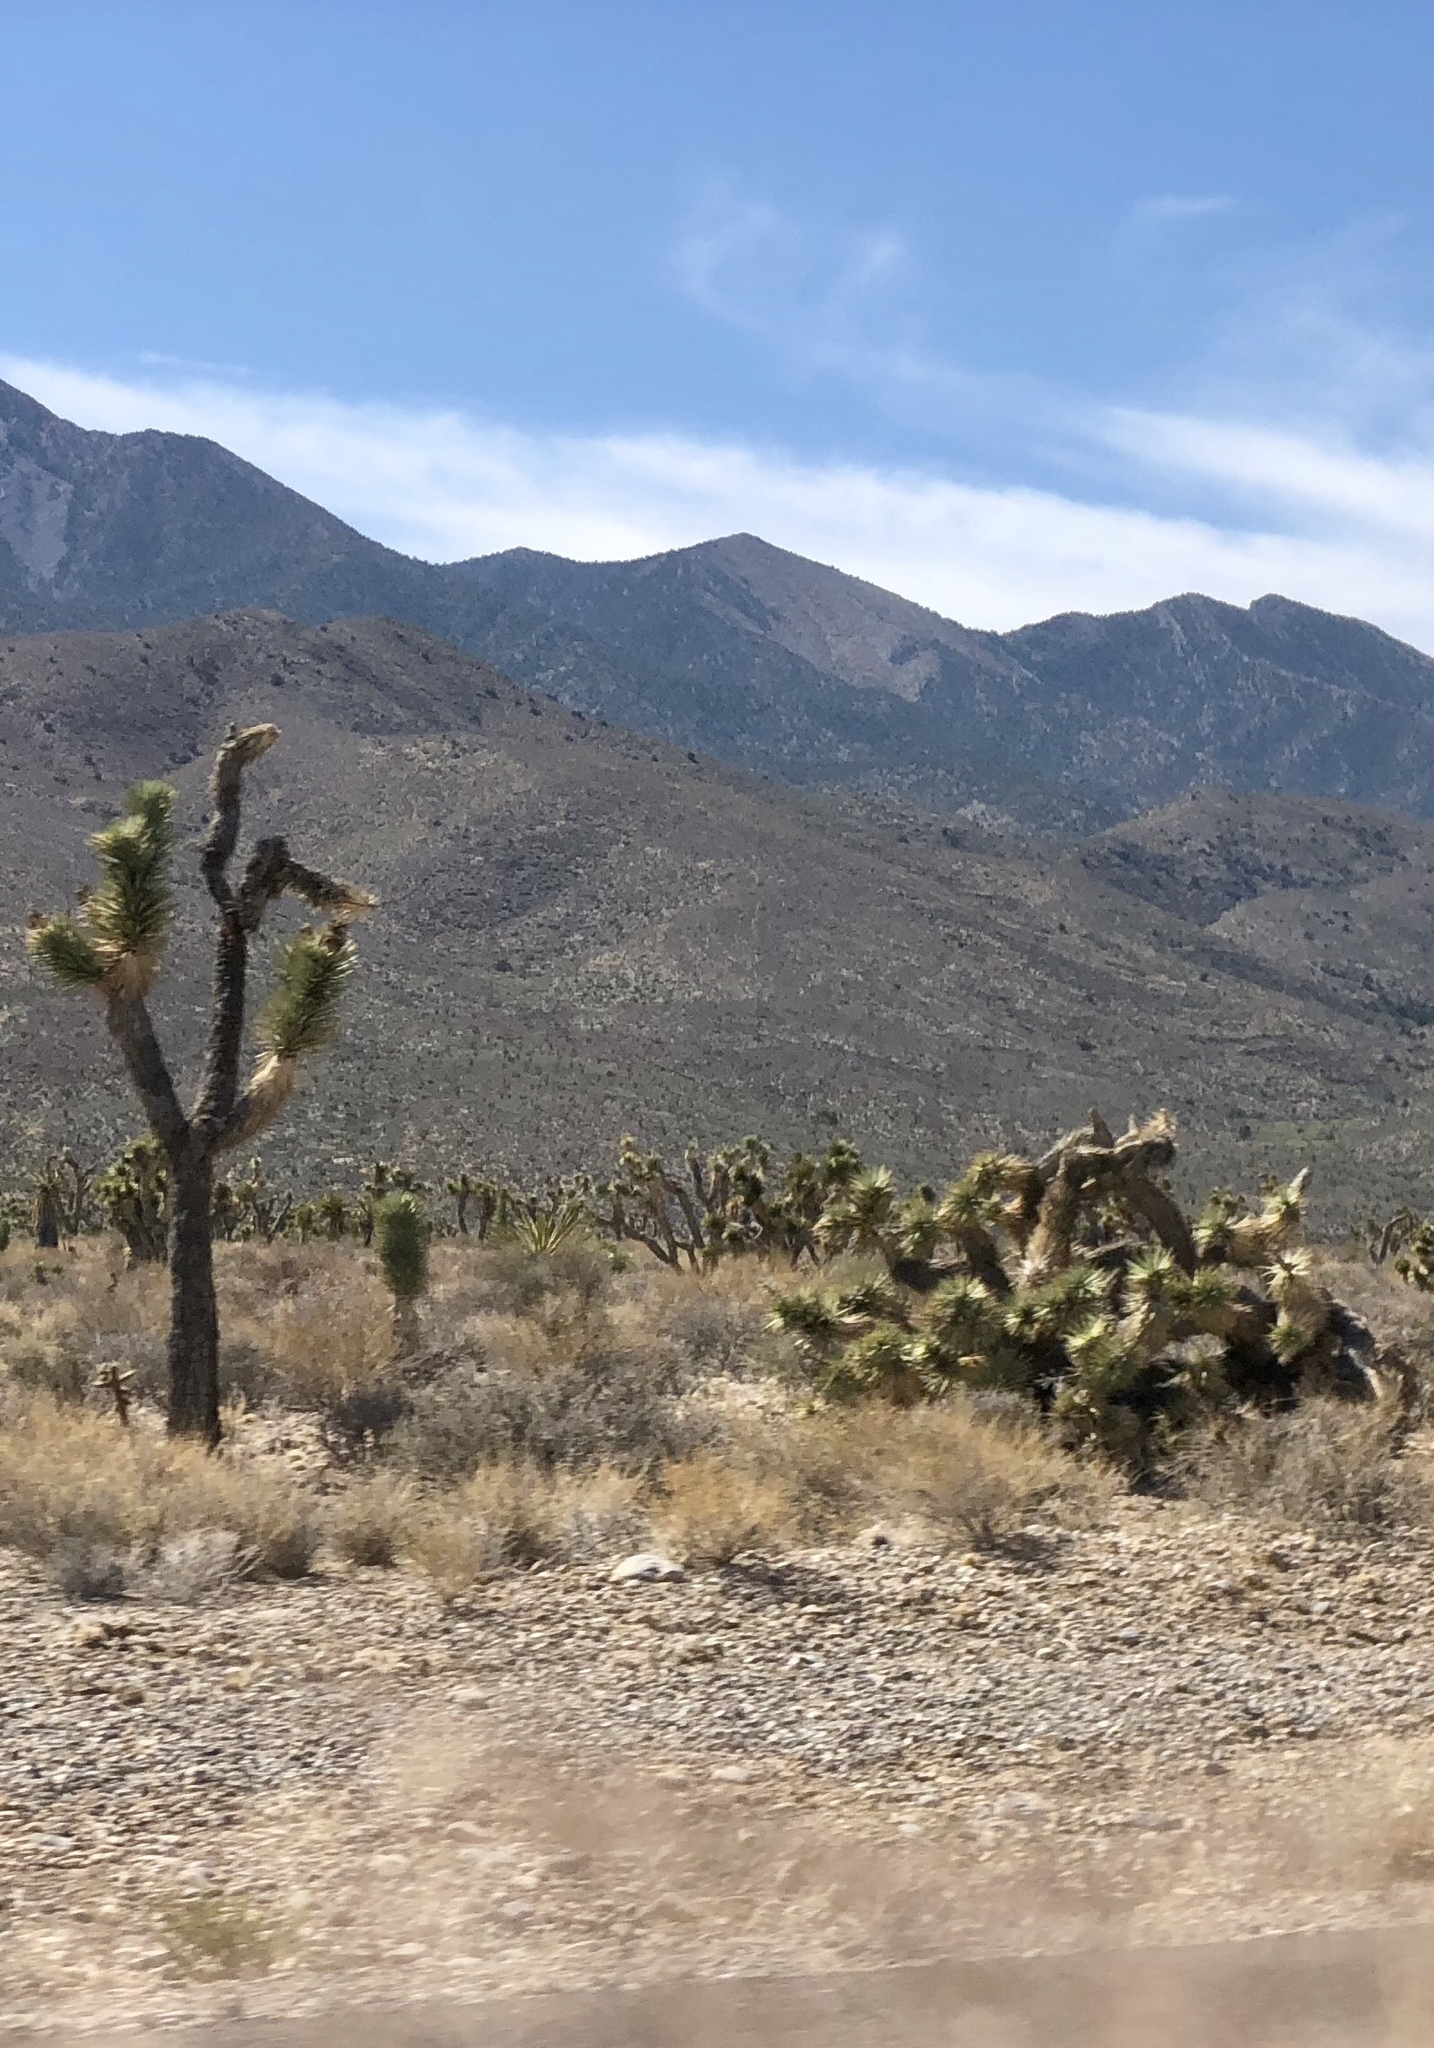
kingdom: Plantae
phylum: Tracheophyta
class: Liliopsida
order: Asparagales
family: Asparagaceae
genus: Yucca
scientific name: Yucca brevifolia
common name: Joshua tree
